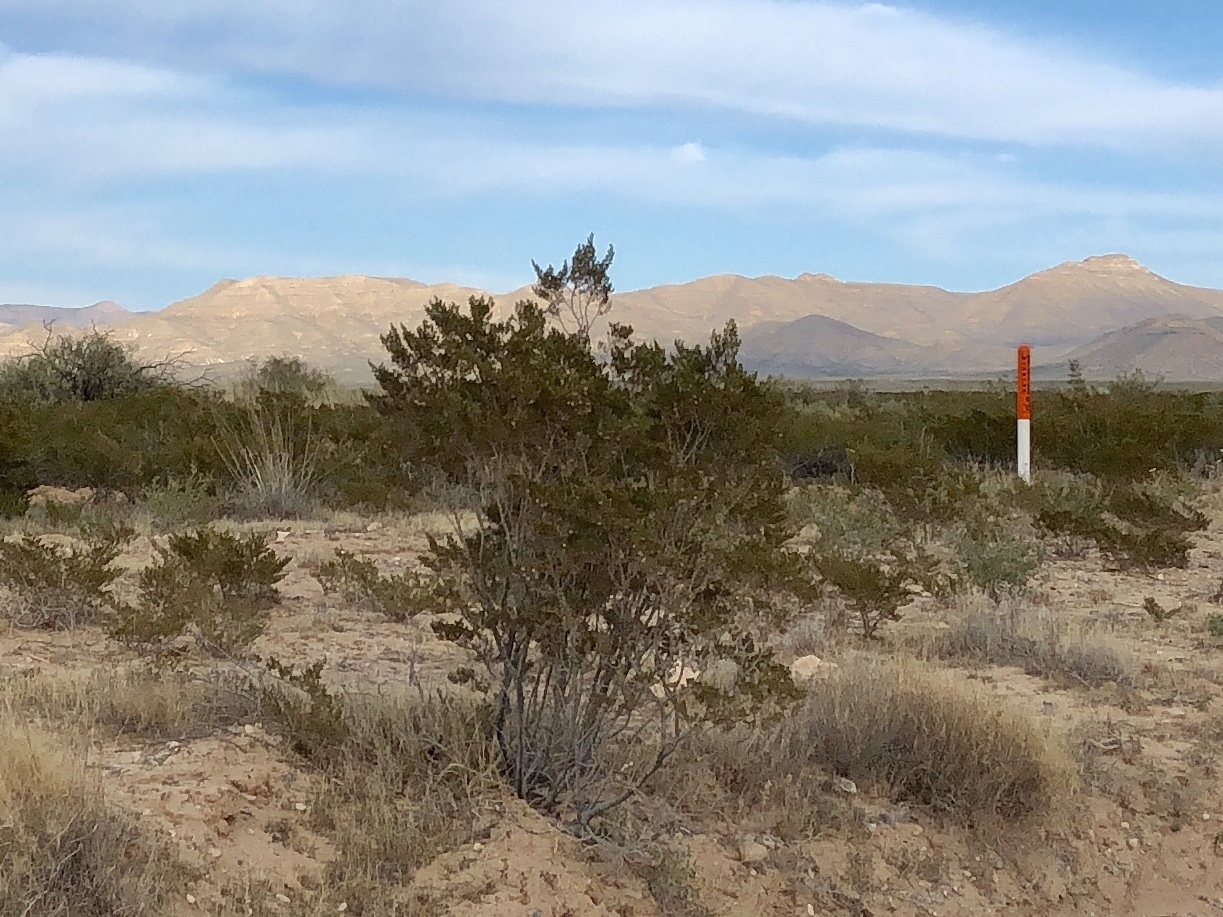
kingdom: Plantae
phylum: Tracheophyta
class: Magnoliopsida
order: Zygophyllales
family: Zygophyllaceae
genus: Larrea
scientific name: Larrea tridentata
